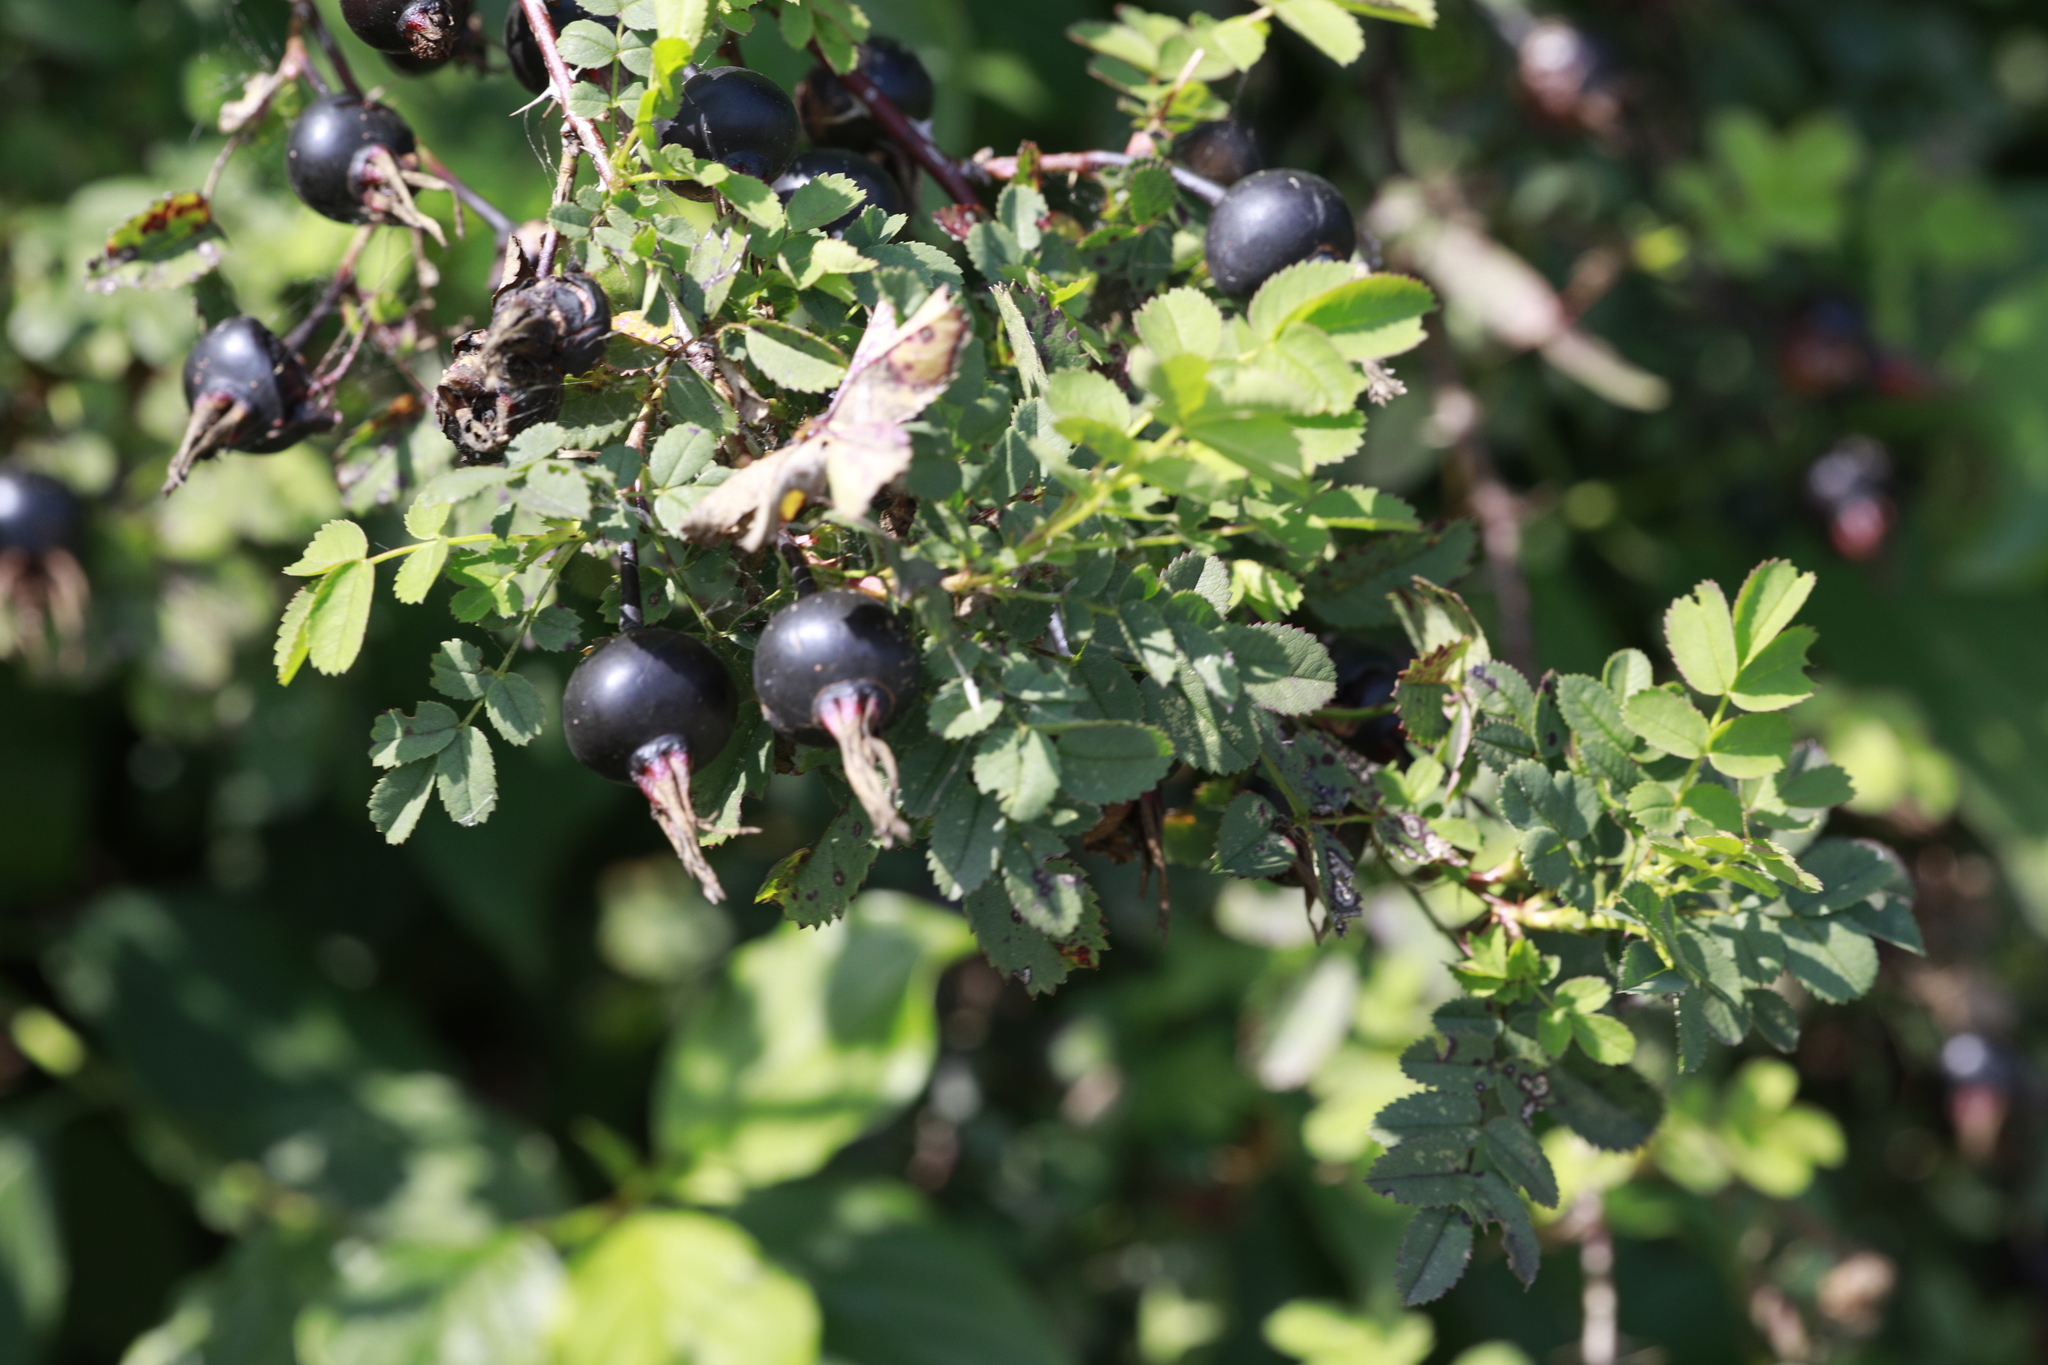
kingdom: Plantae
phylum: Tracheophyta
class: Magnoliopsida
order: Rosales
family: Rosaceae
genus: Rosa
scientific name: Rosa spinosissima
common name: Burnet rose
